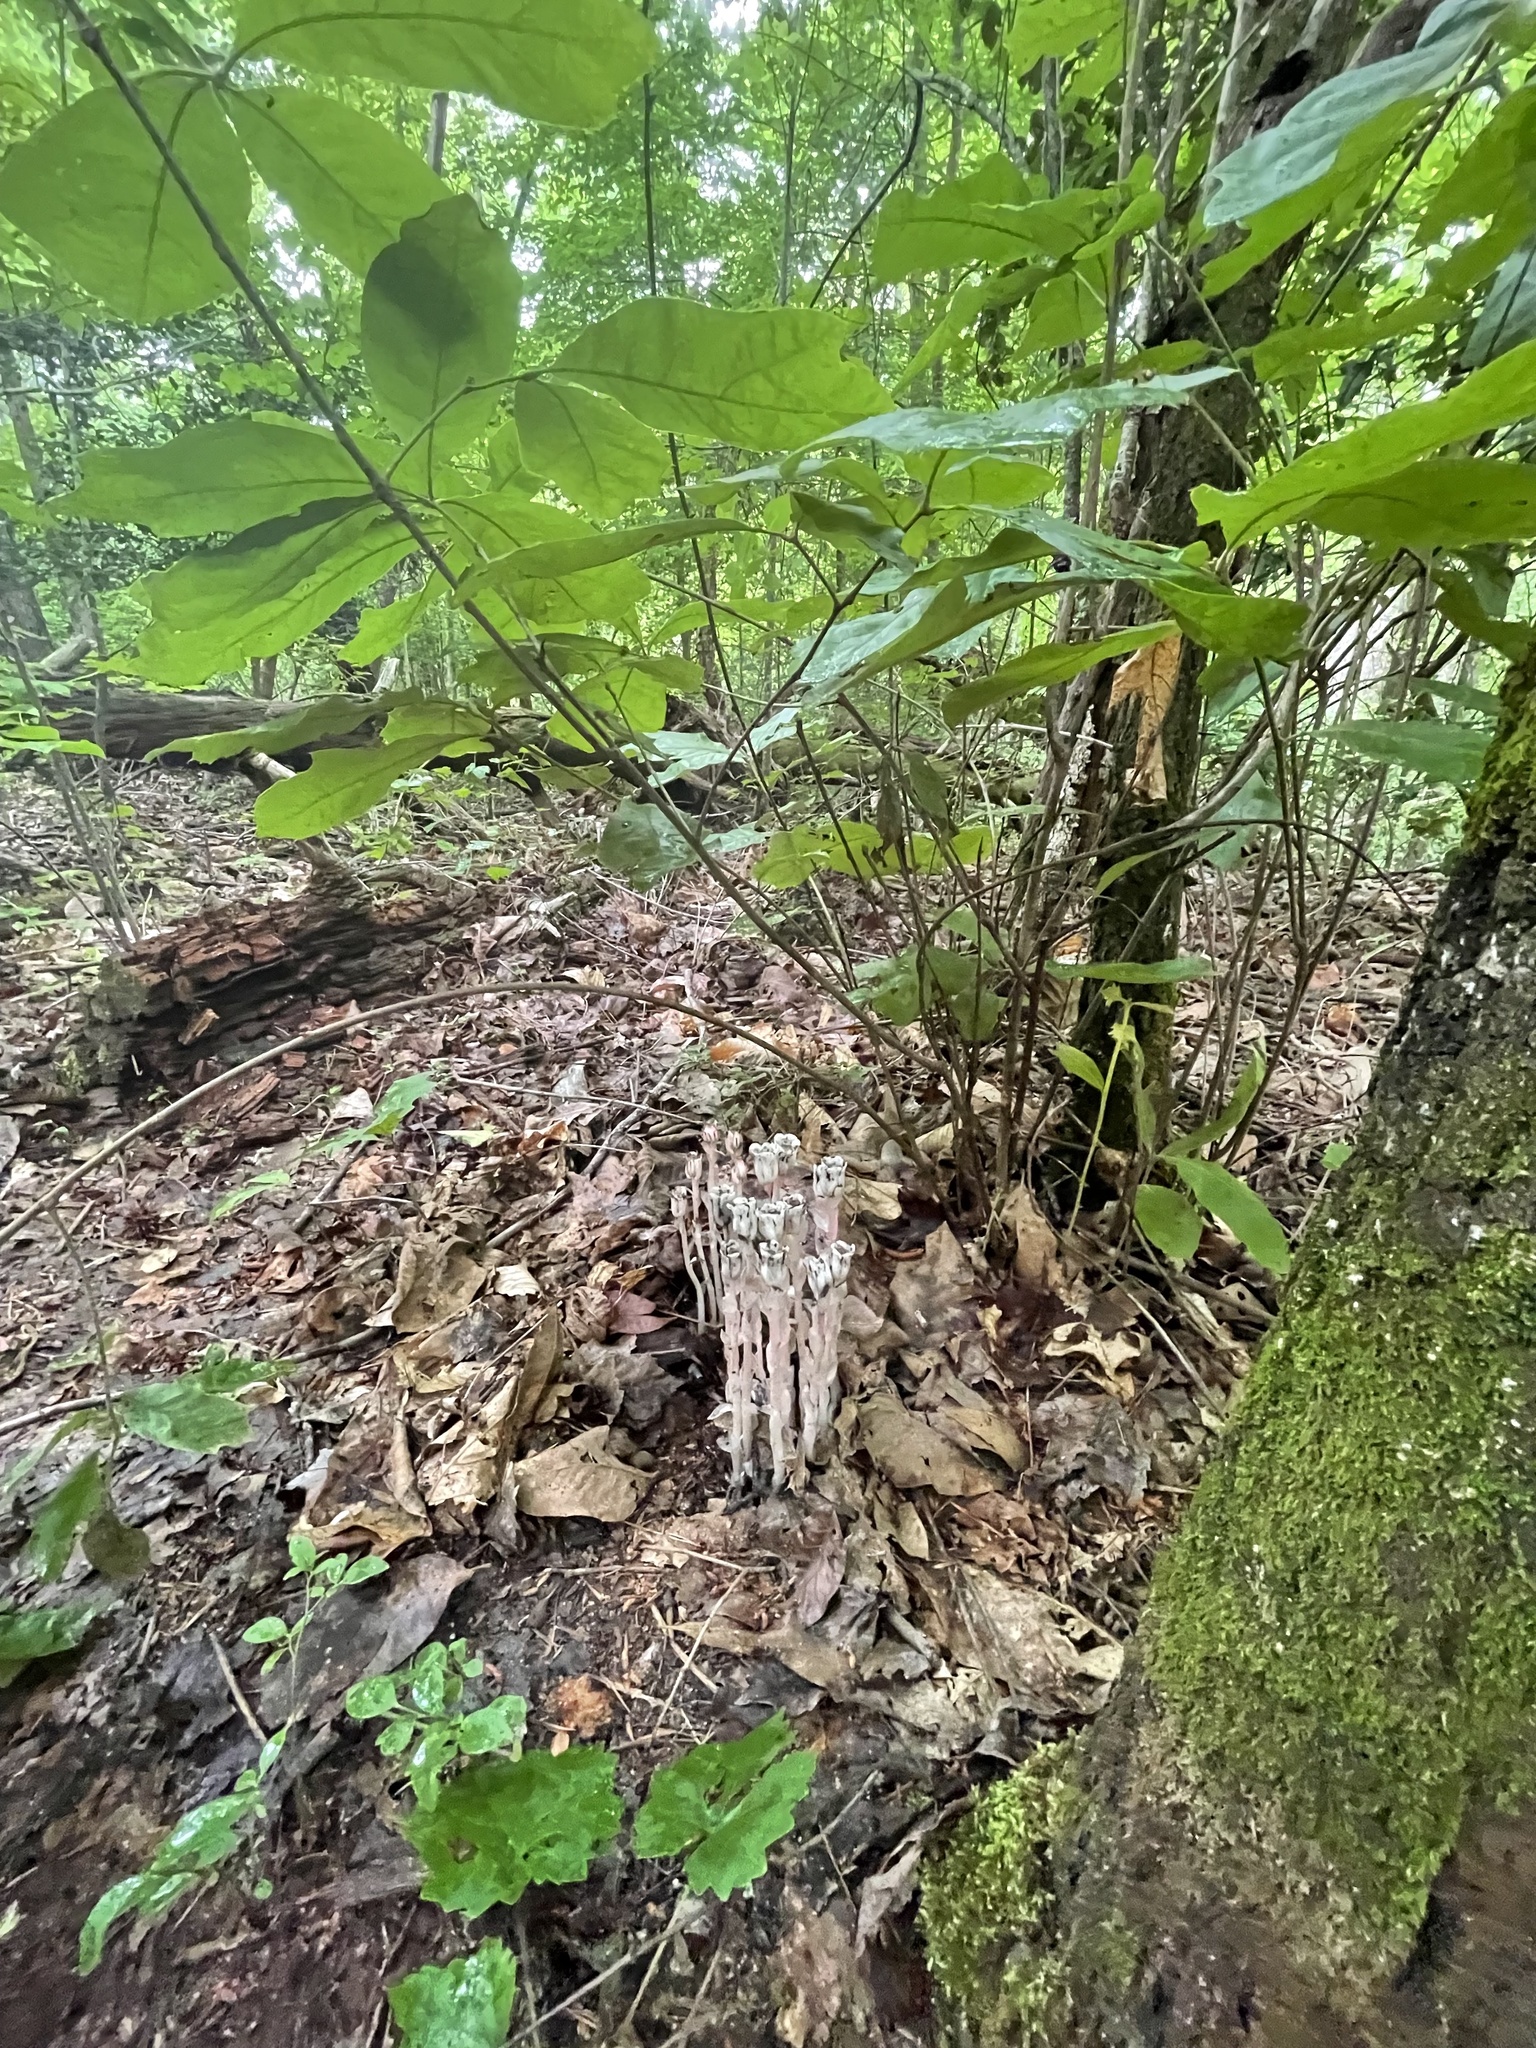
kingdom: Plantae
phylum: Tracheophyta
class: Magnoliopsida
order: Ericales
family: Ericaceae
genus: Monotropa
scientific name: Monotropa uniflora
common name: Convulsion root
